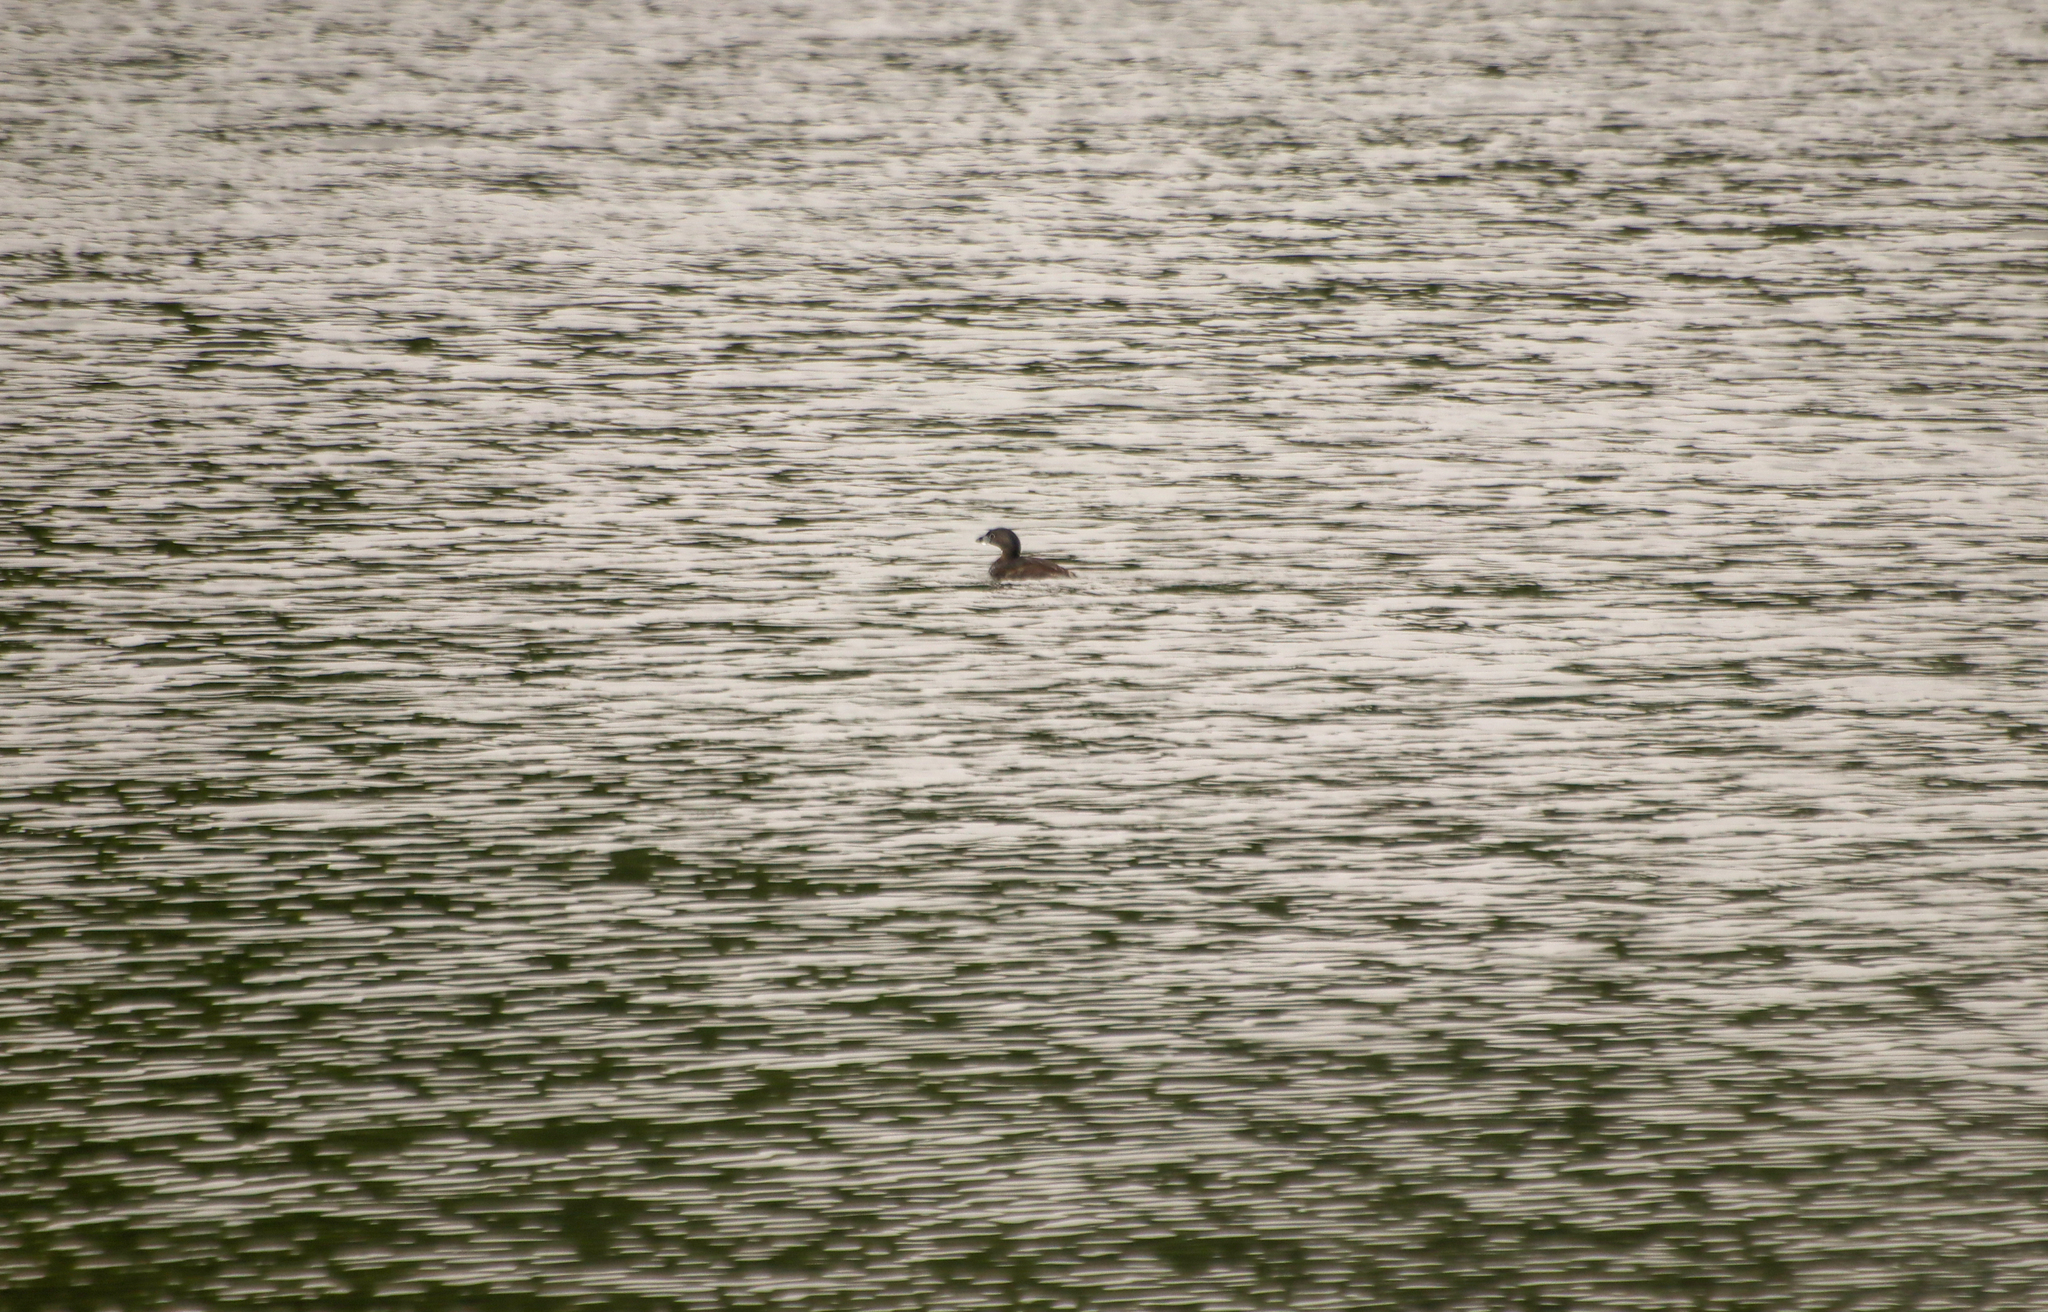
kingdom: Animalia
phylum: Chordata
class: Aves
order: Podicipediformes
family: Podicipedidae
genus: Podilymbus
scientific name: Podilymbus podiceps
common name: Pied-billed grebe
